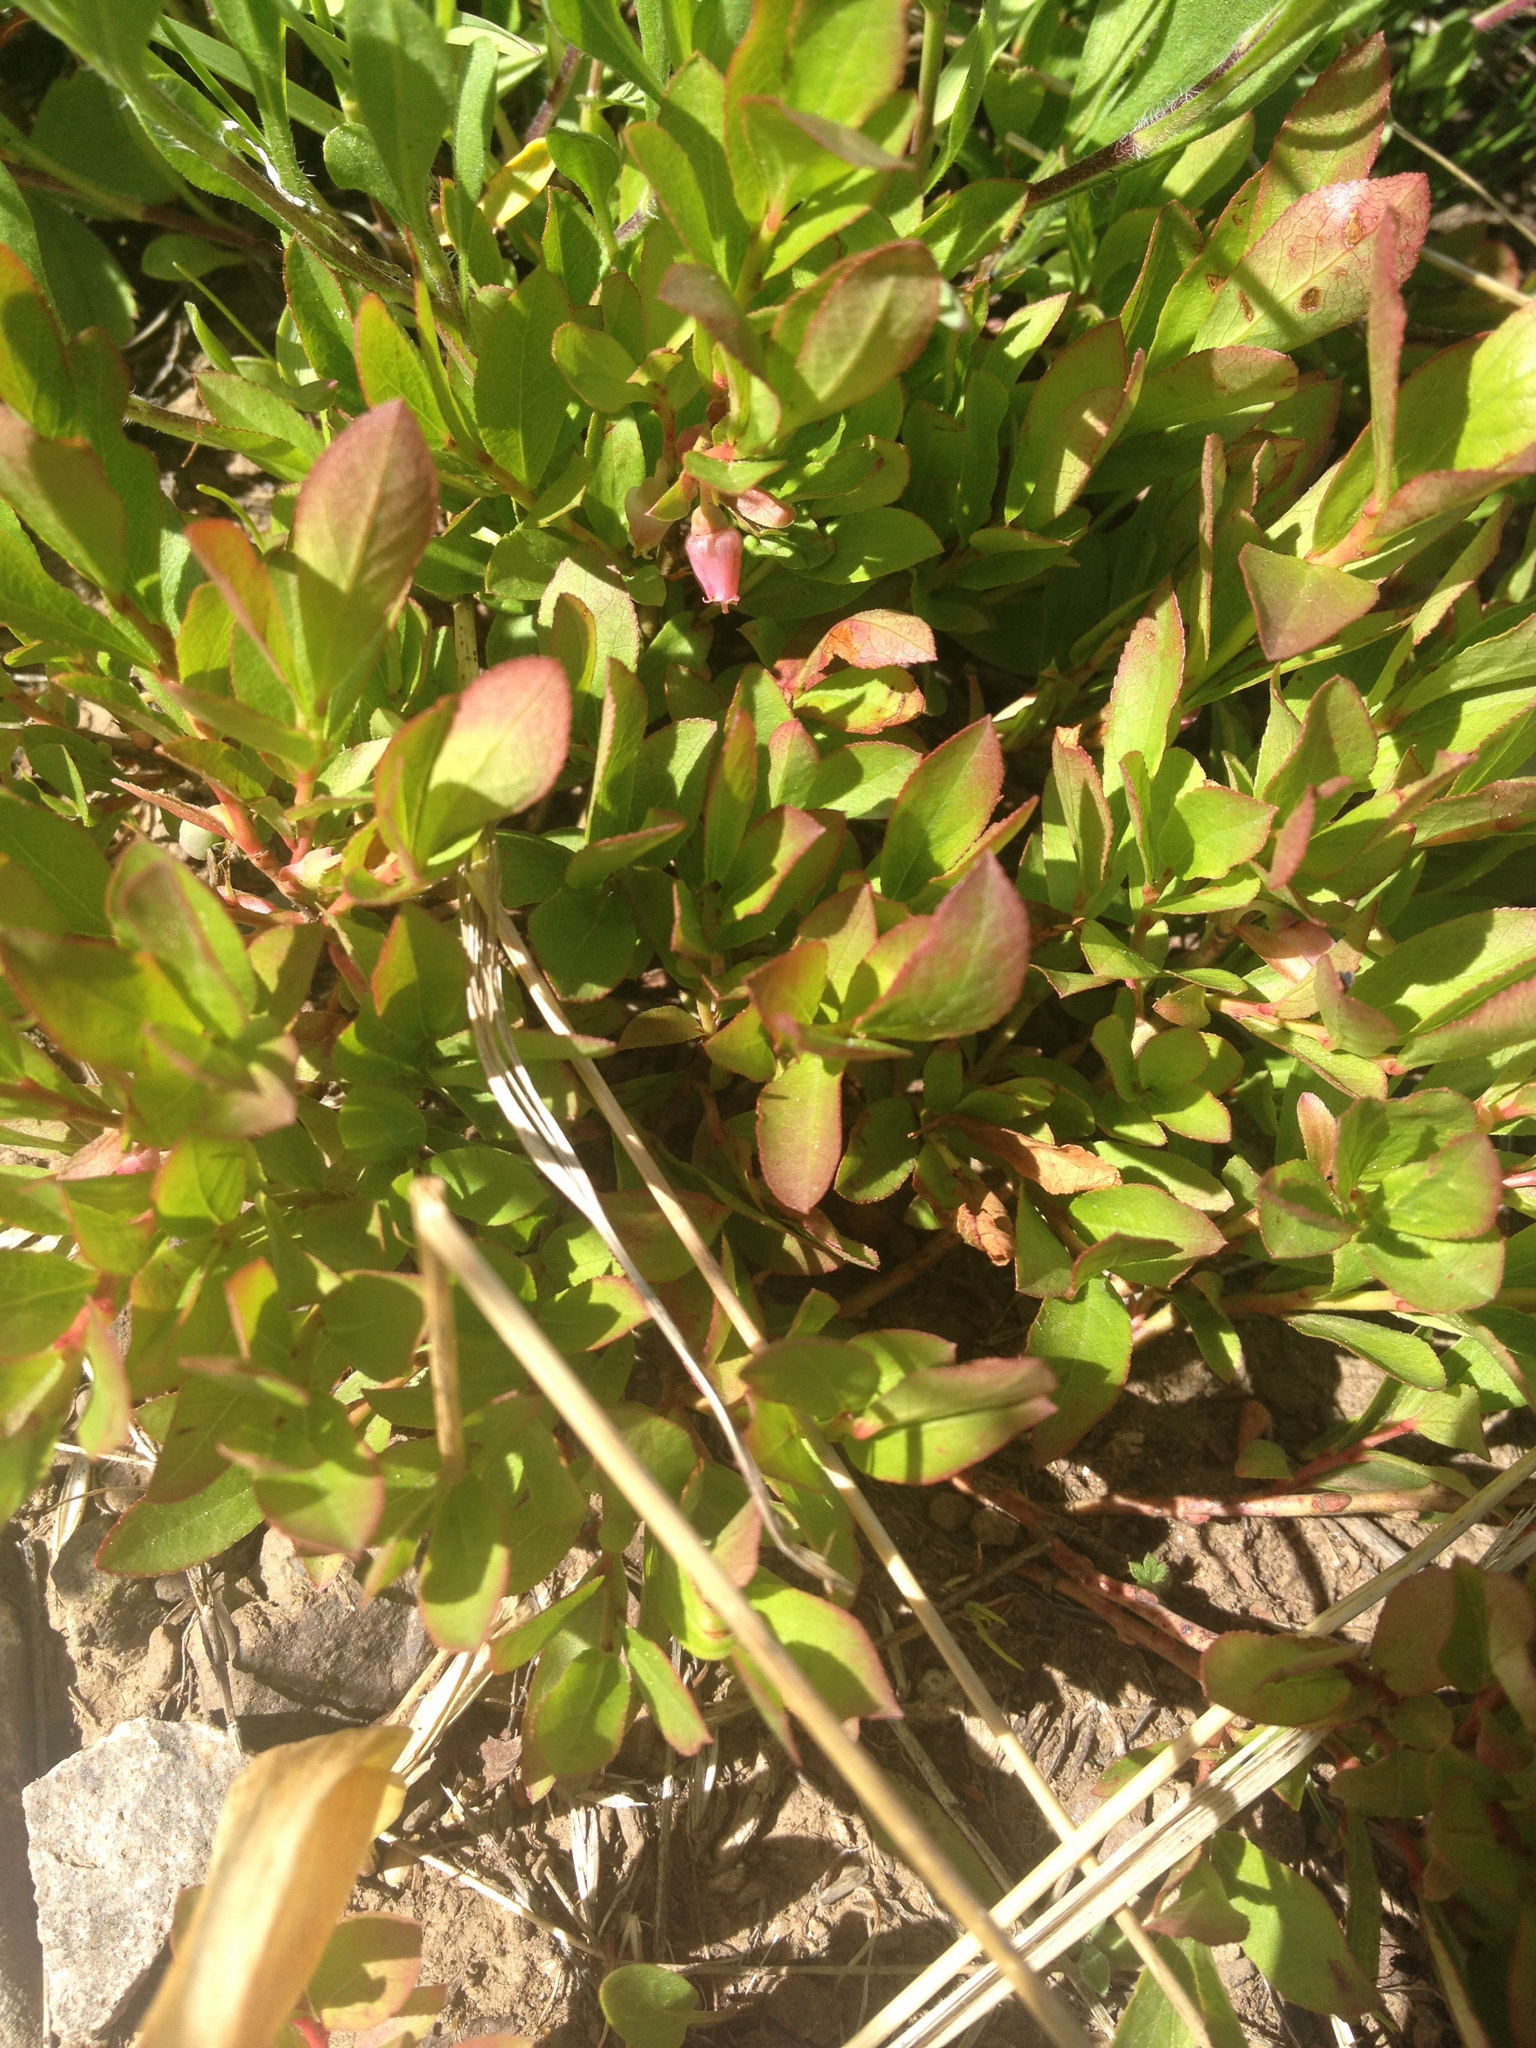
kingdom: Plantae
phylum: Tracheophyta
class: Magnoliopsida
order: Ericales
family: Ericaceae
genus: Vaccinium
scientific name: Vaccinium cespitosum
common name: Dwarf bilberry
